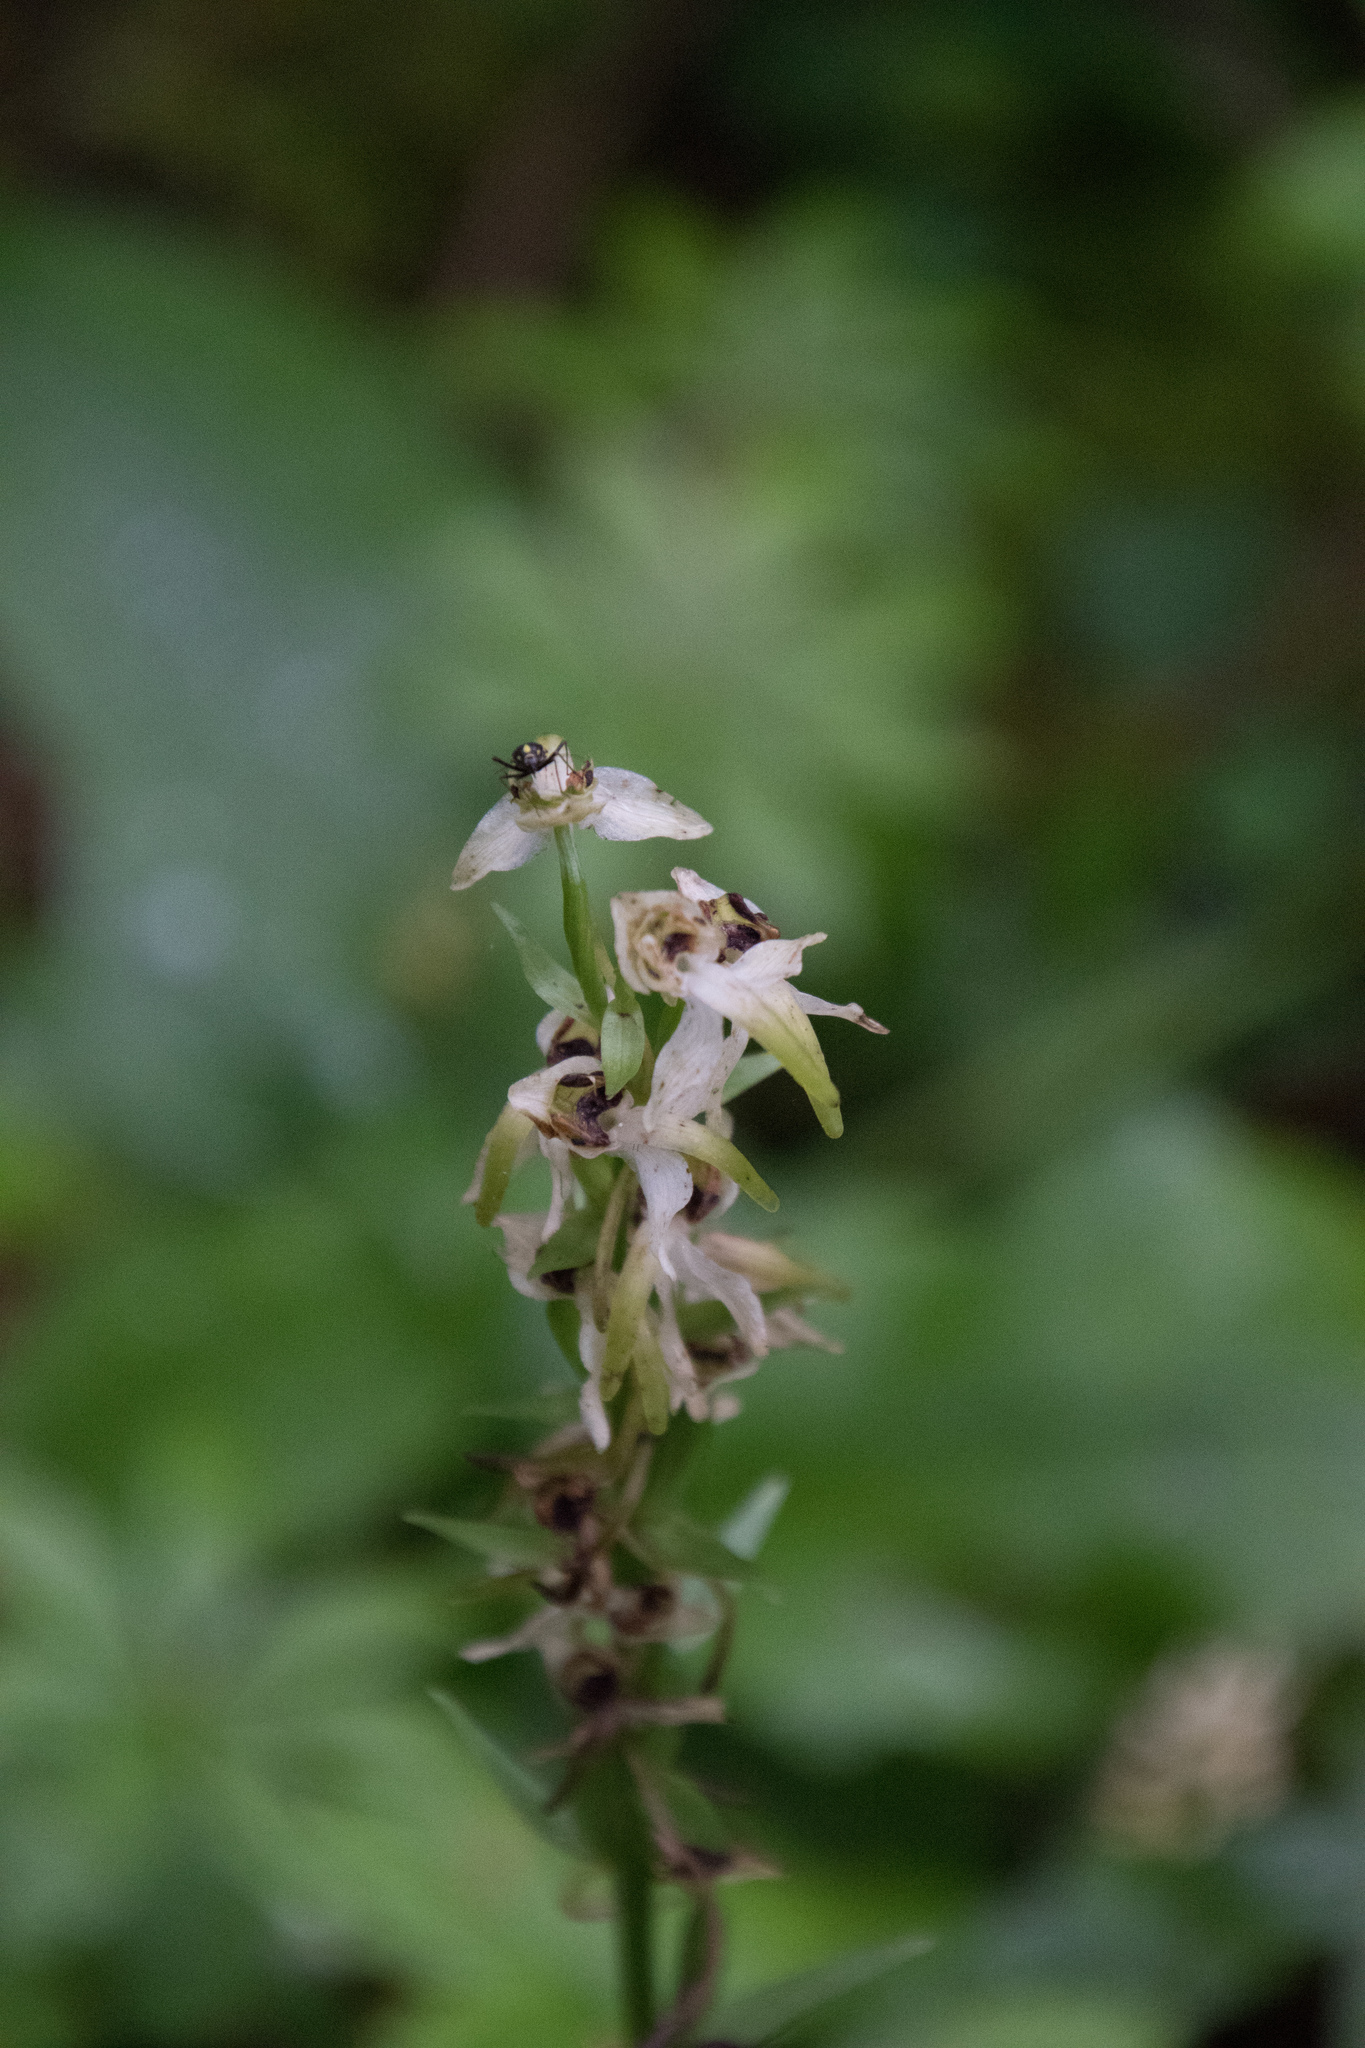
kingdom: Plantae
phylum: Tracheophyta
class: Liliopsida
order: Asparagales
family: Orchidaceae
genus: Platanthera
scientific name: Platanthera chlorantha
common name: Greater butterfly-orchid
